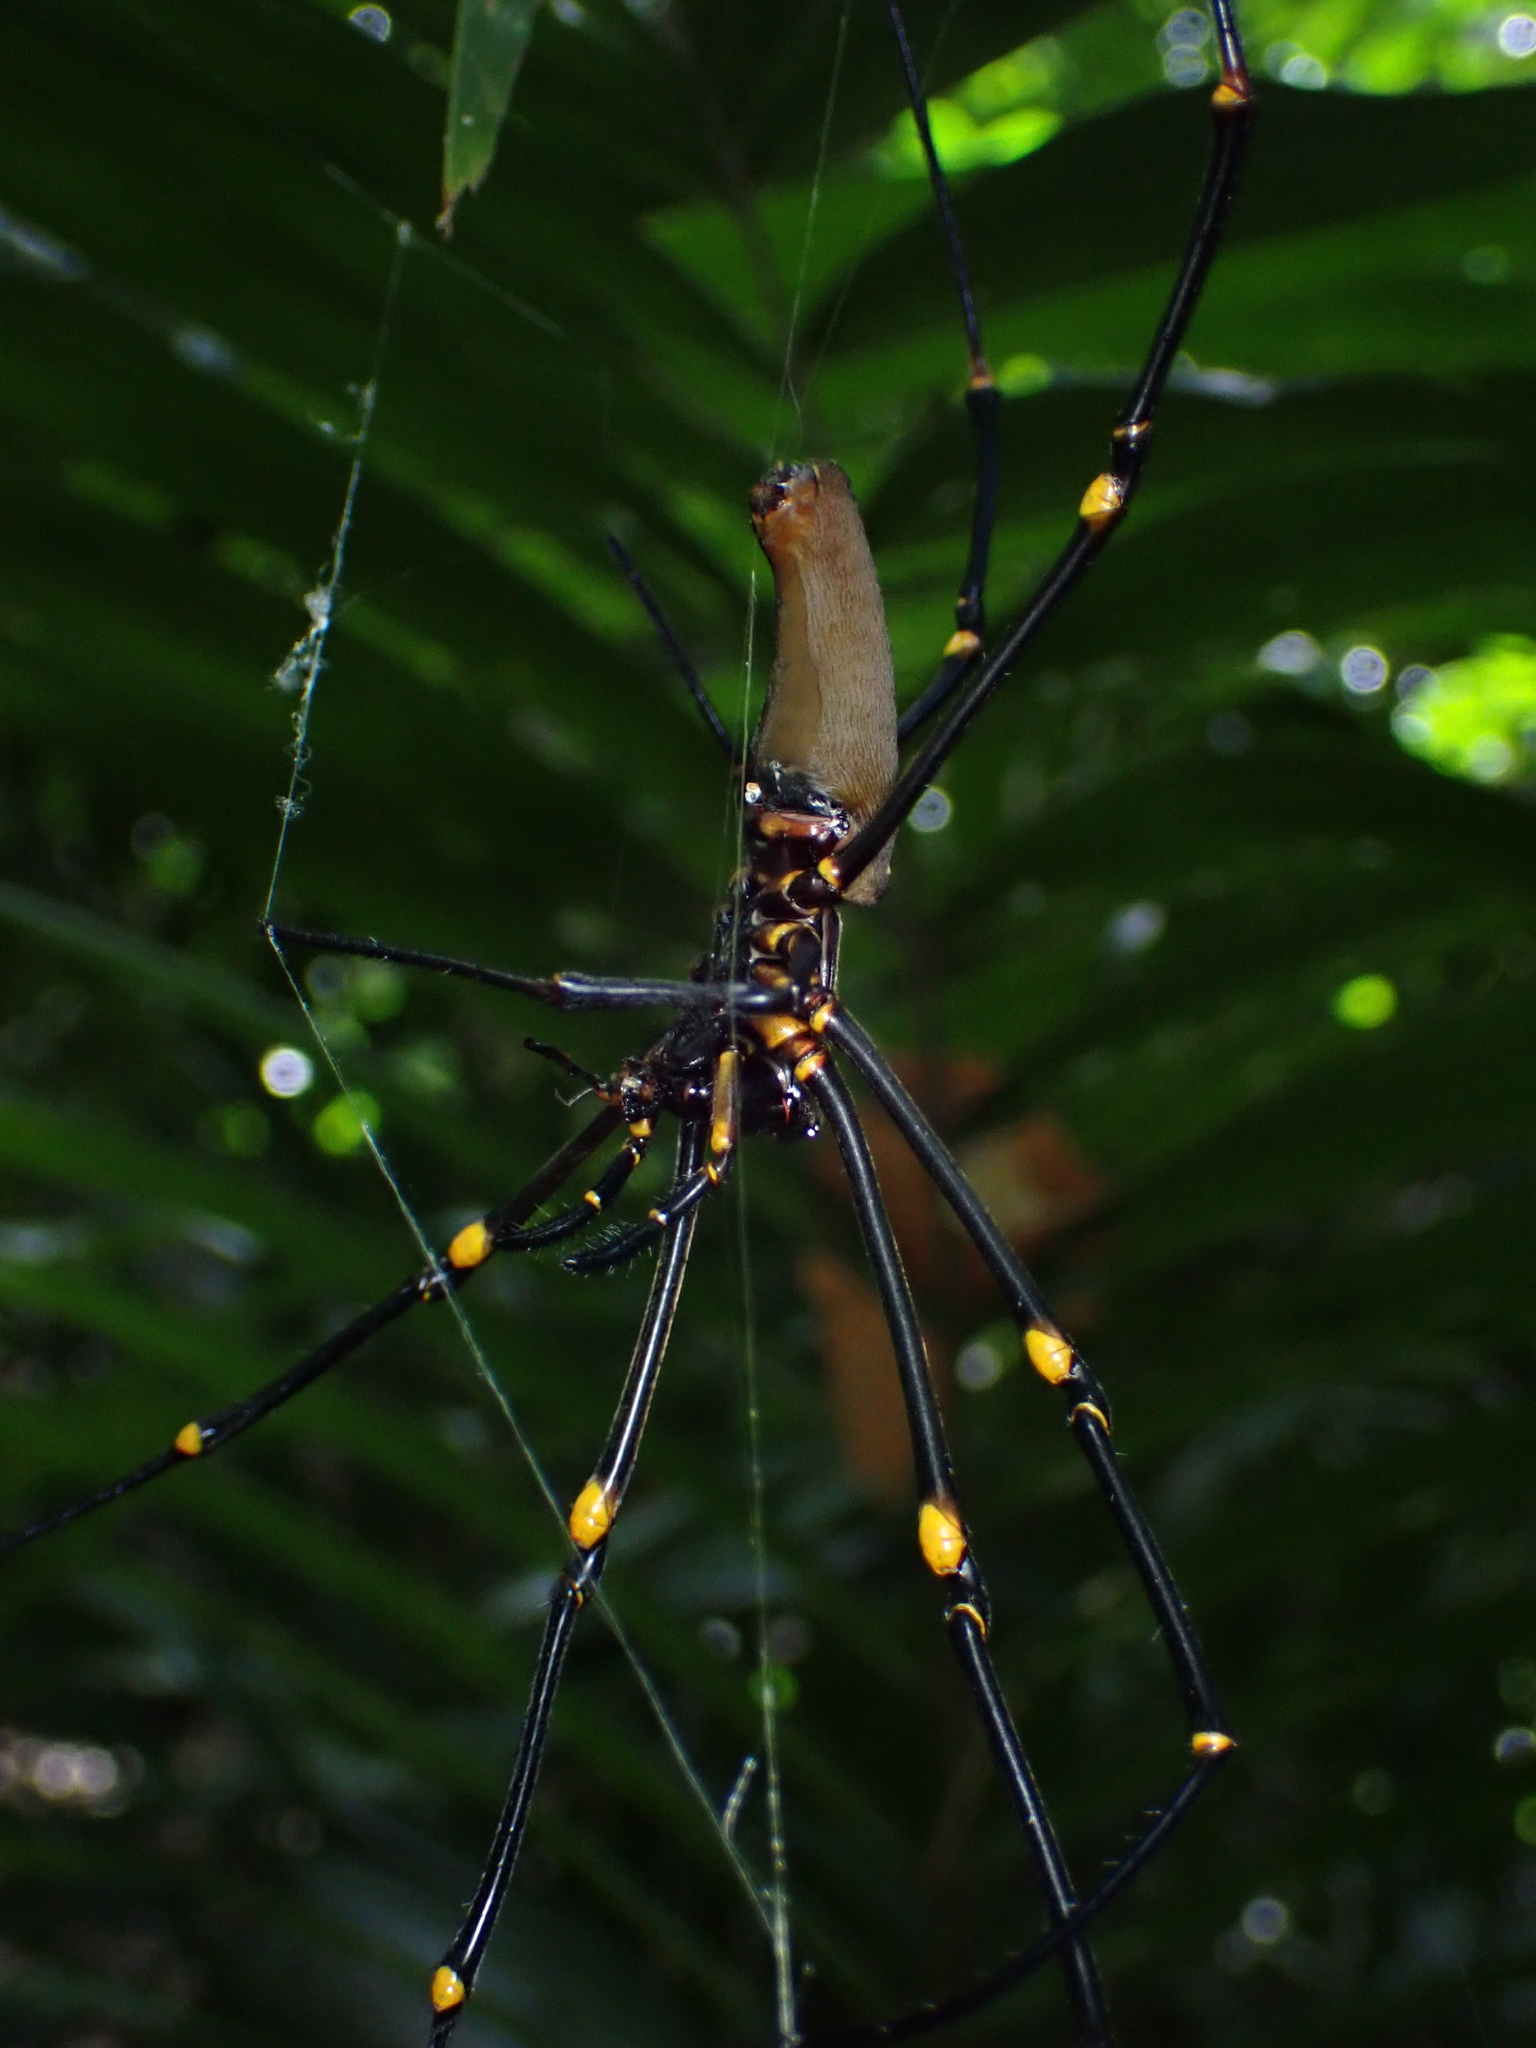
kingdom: Animalia
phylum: Arthropoda
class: Arachnida
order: Araneae
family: Araneidae
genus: Nephila
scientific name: Nephila pilipes
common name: Giant golden orb weaver
